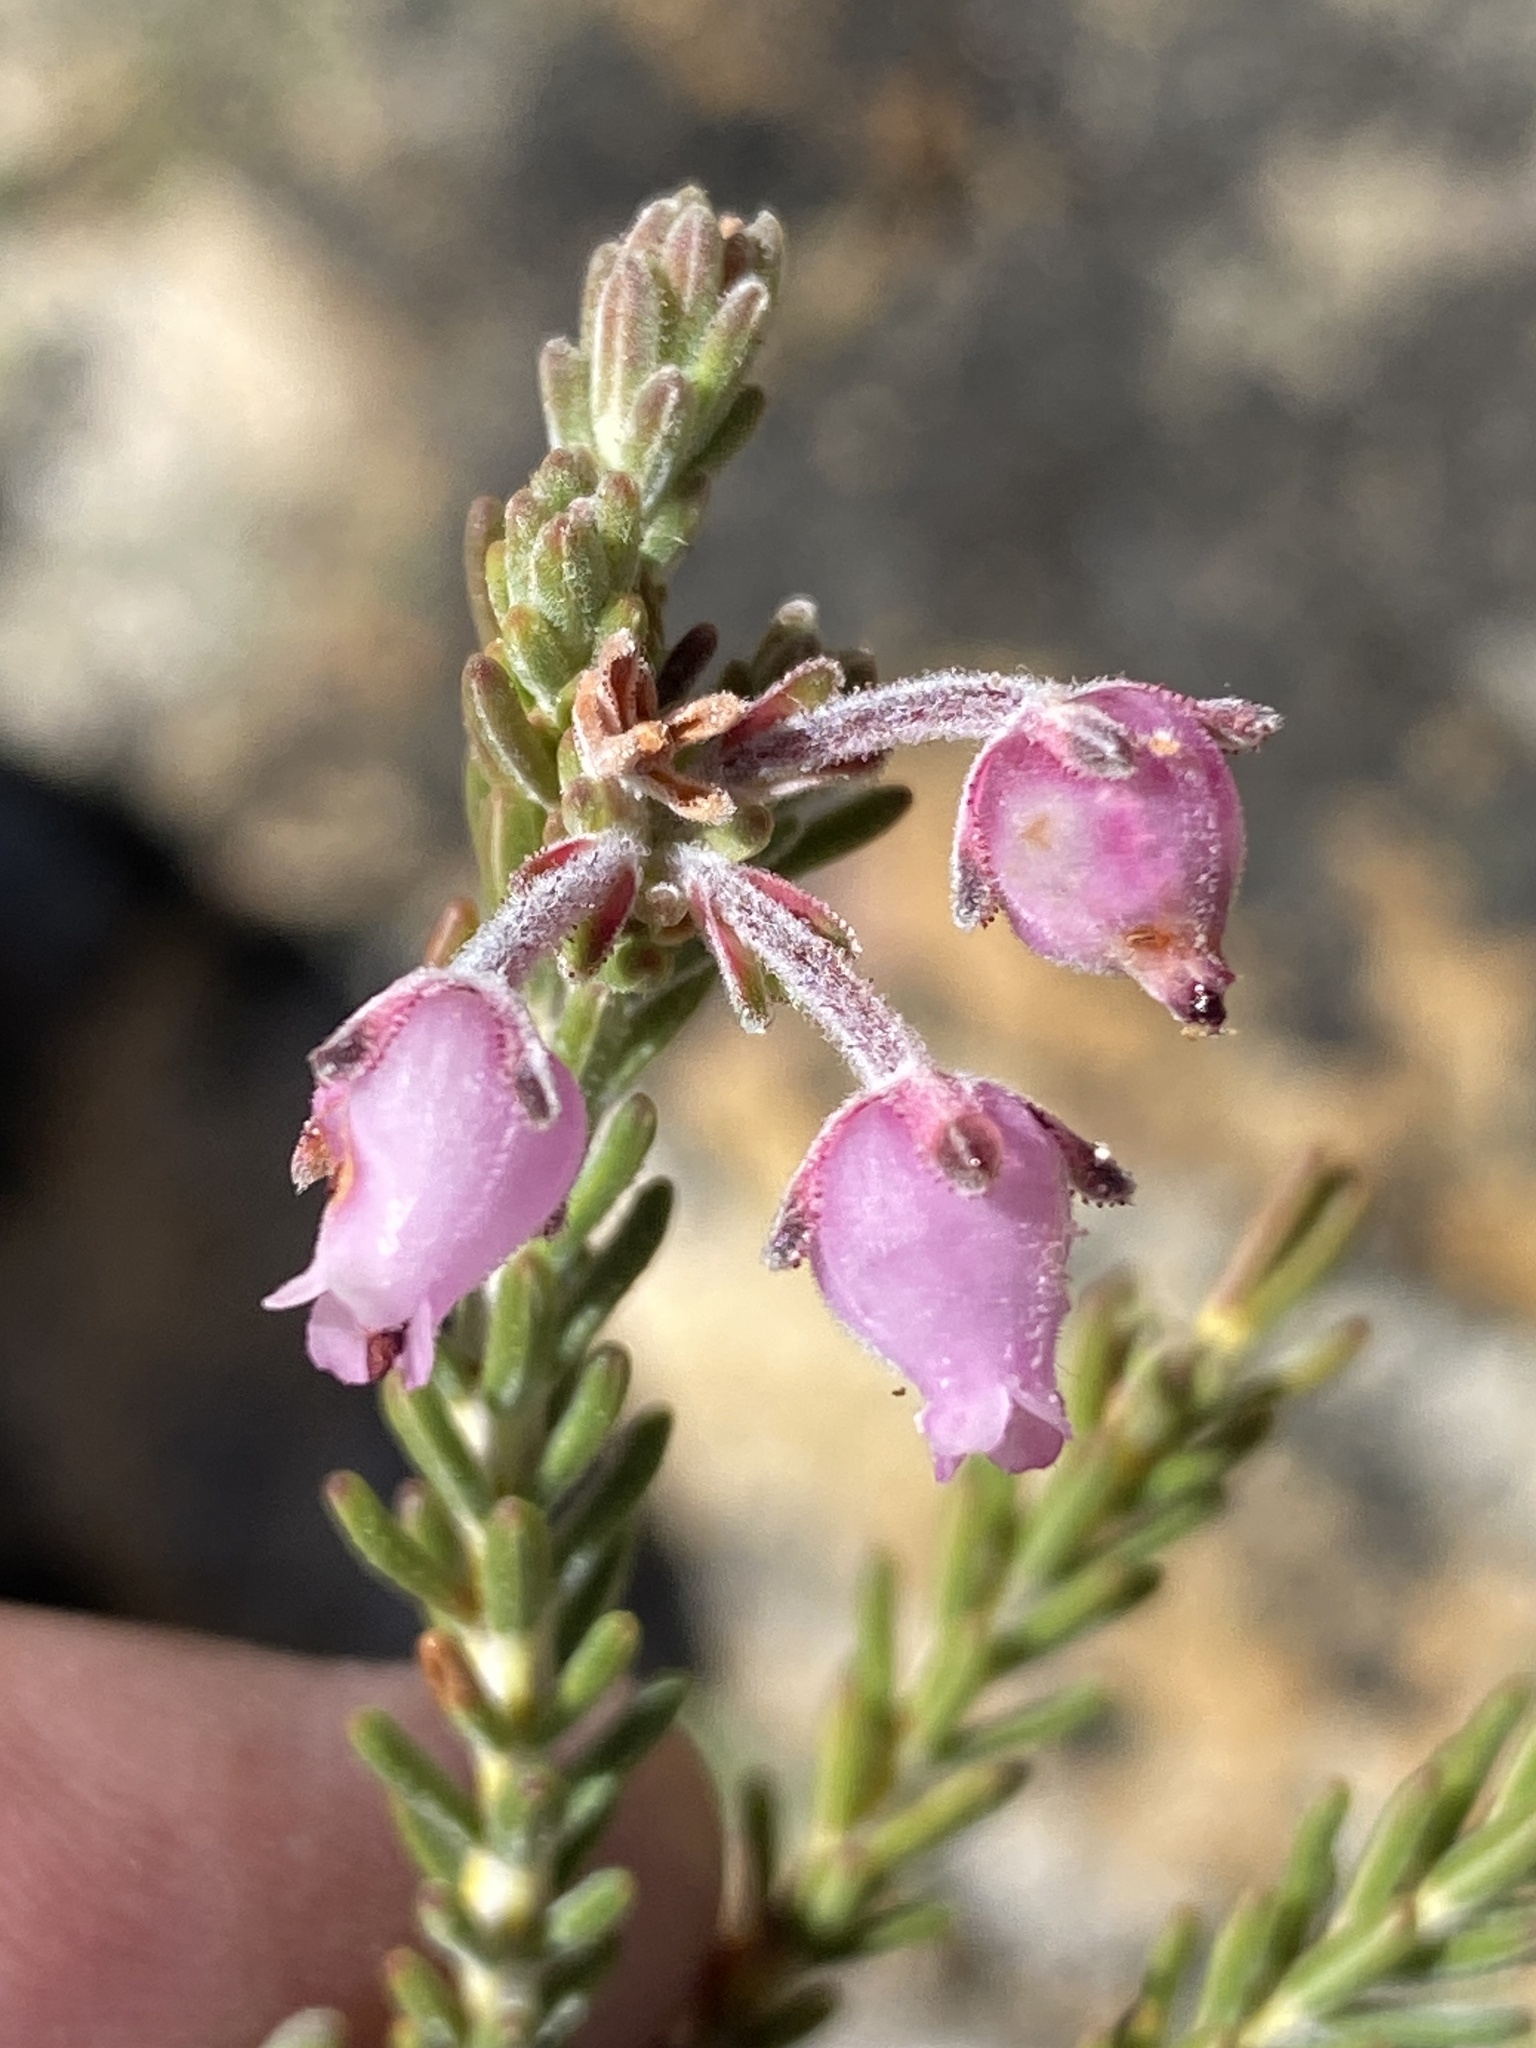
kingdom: Plantae
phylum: Tracheophyta
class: Magnoliopsida
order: Ericales
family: Ericaceae
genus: Erica
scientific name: Erica oresigena
